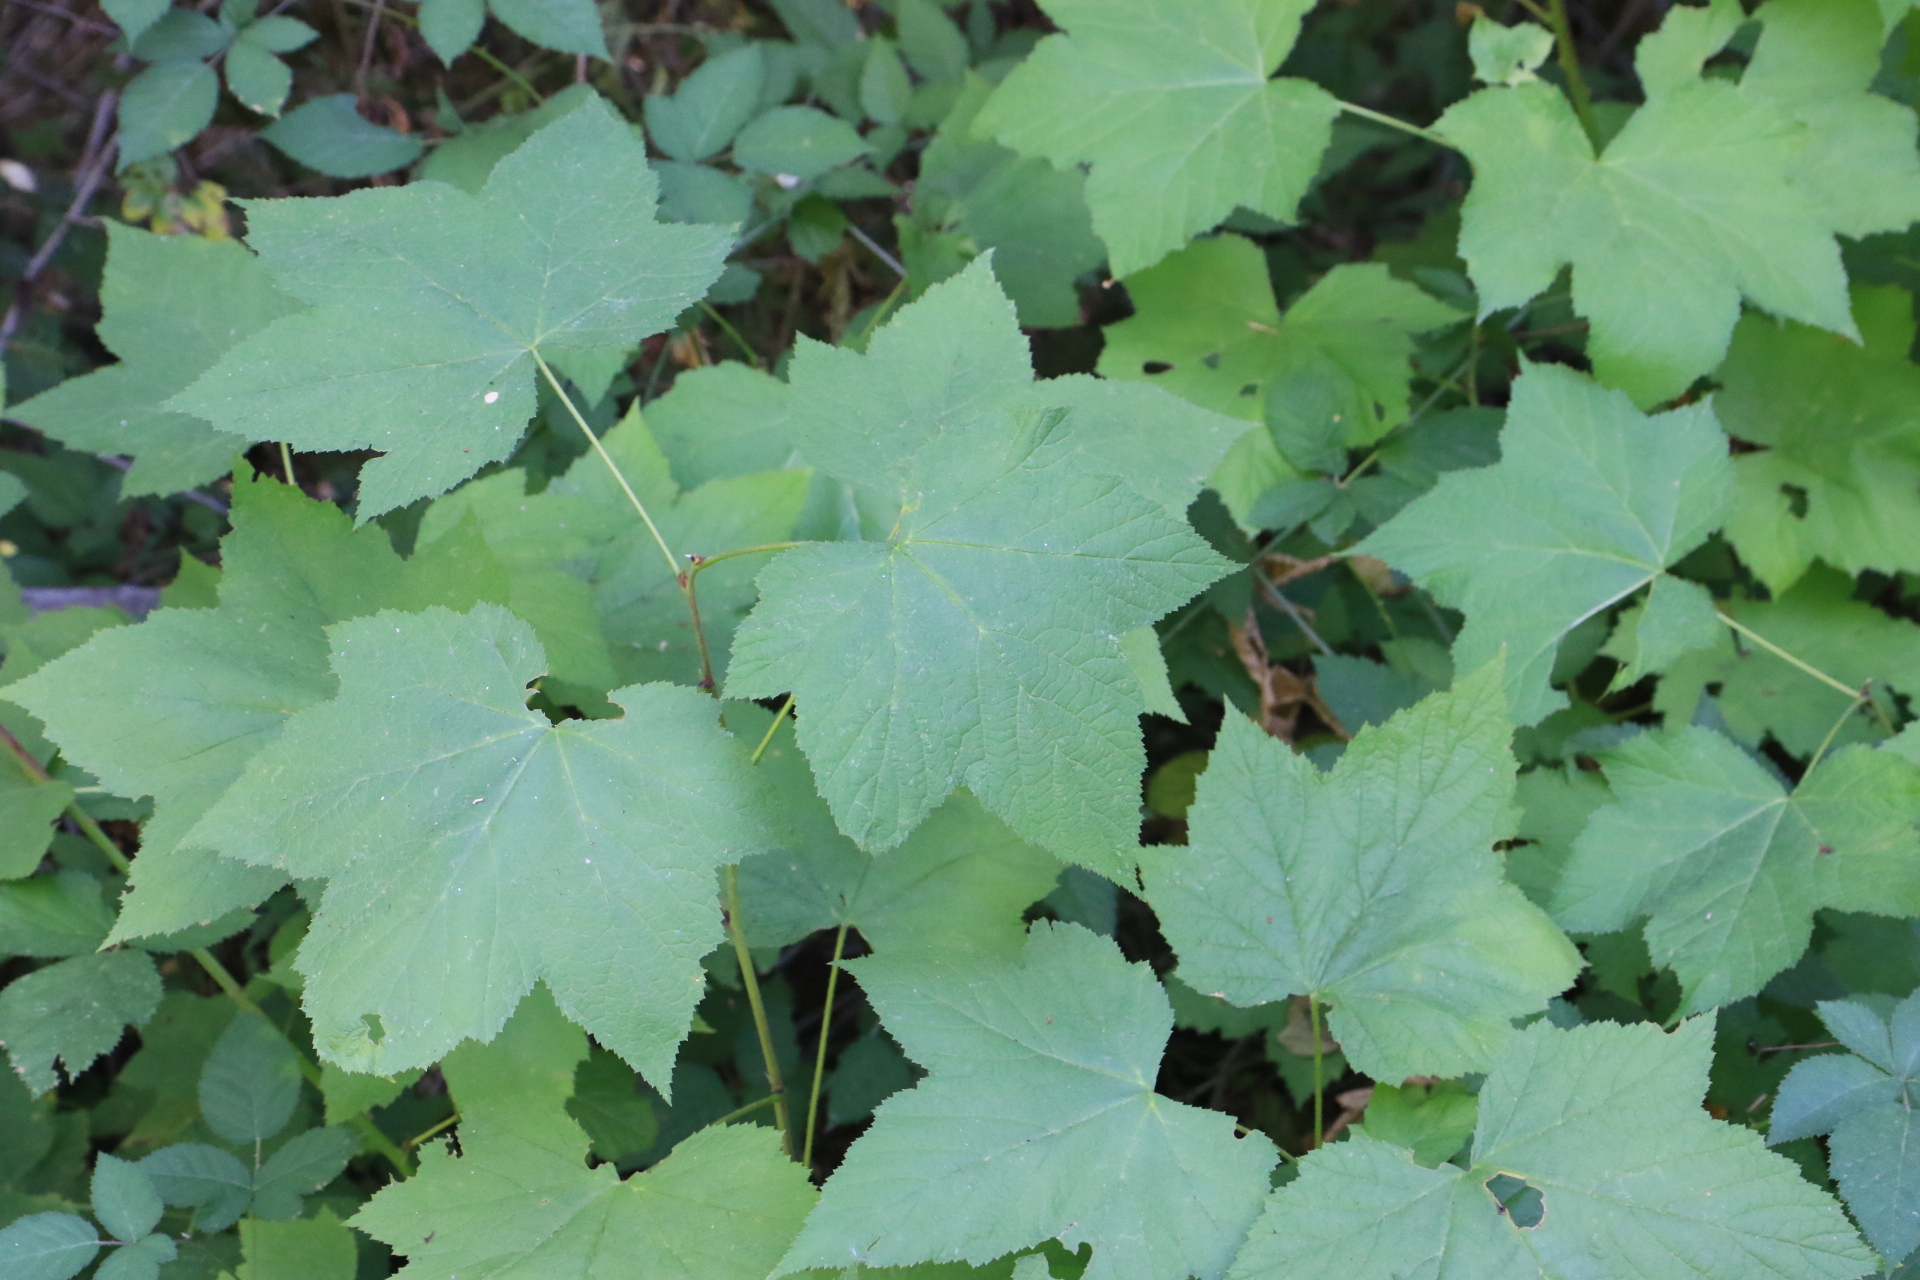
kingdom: Plantae
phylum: Tracheophyta
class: Magnoliopsida
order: Rosales
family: Rosaceae
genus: Rubus
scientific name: Rubus parviflorus
